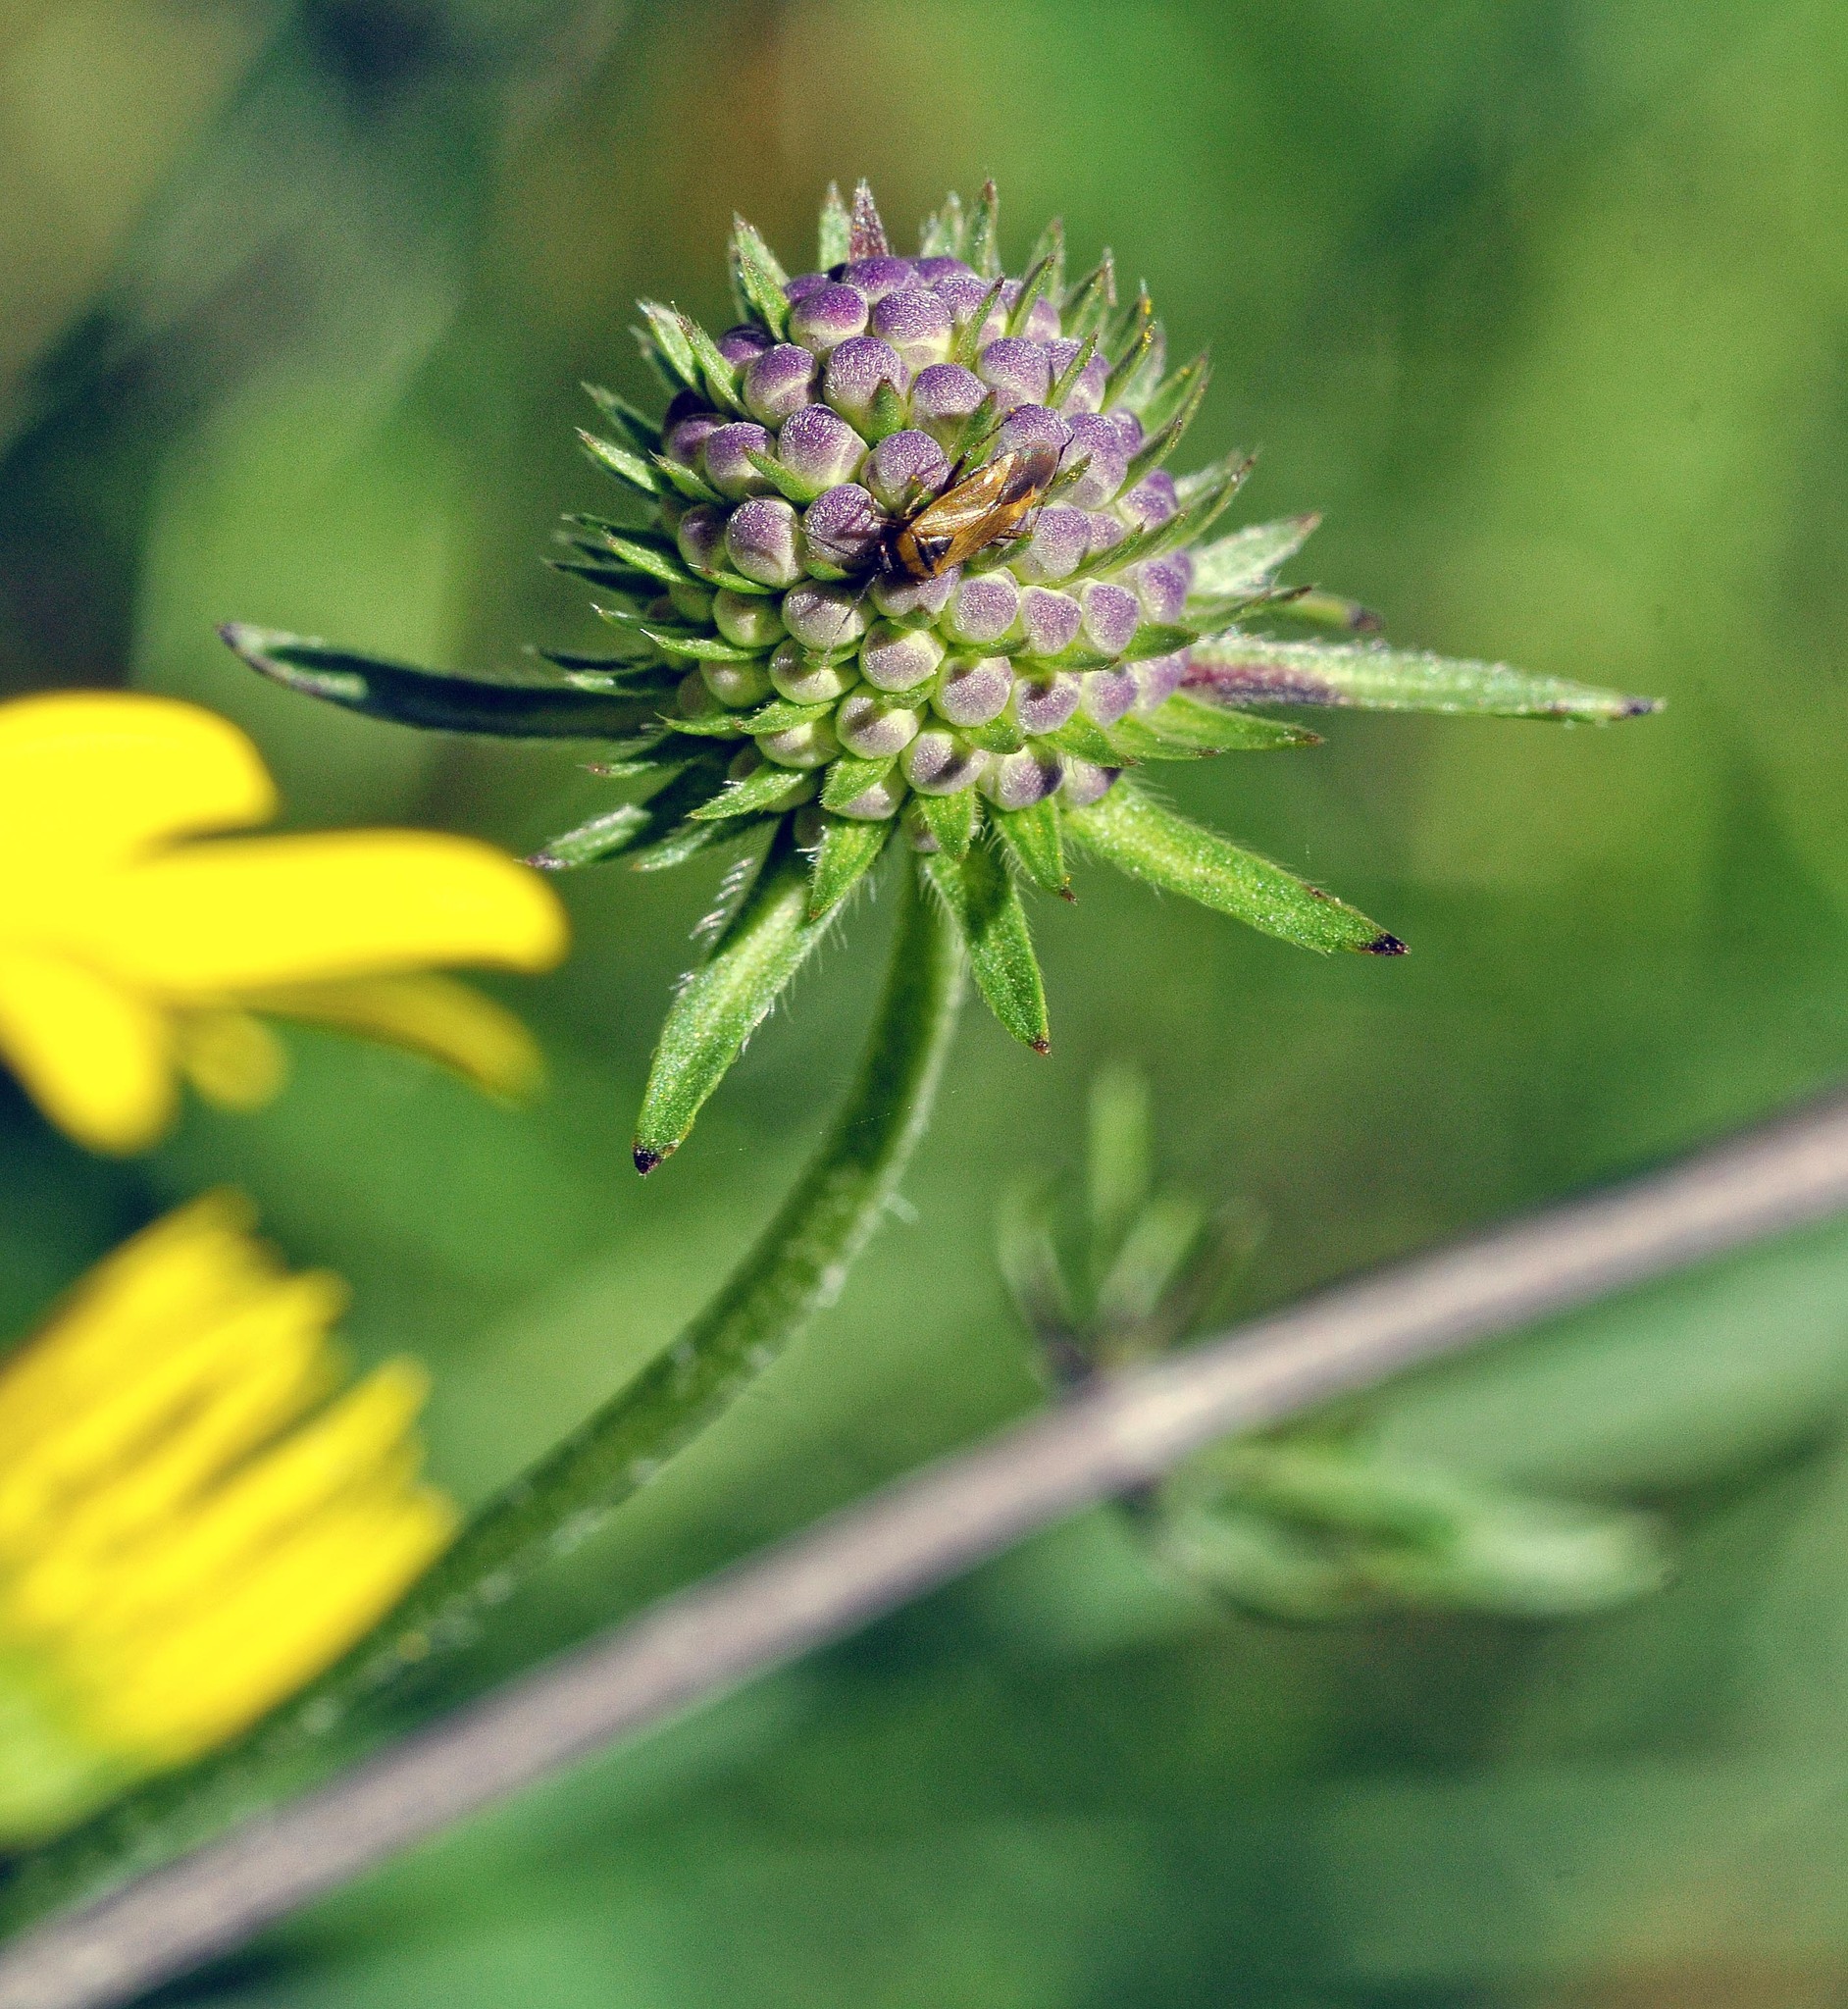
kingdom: Animalia
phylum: Arthropoda
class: Insecta
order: Hemiptera
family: Miridae
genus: Plagiognathus
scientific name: Plagiognathus arbustorum
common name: Plant bug
